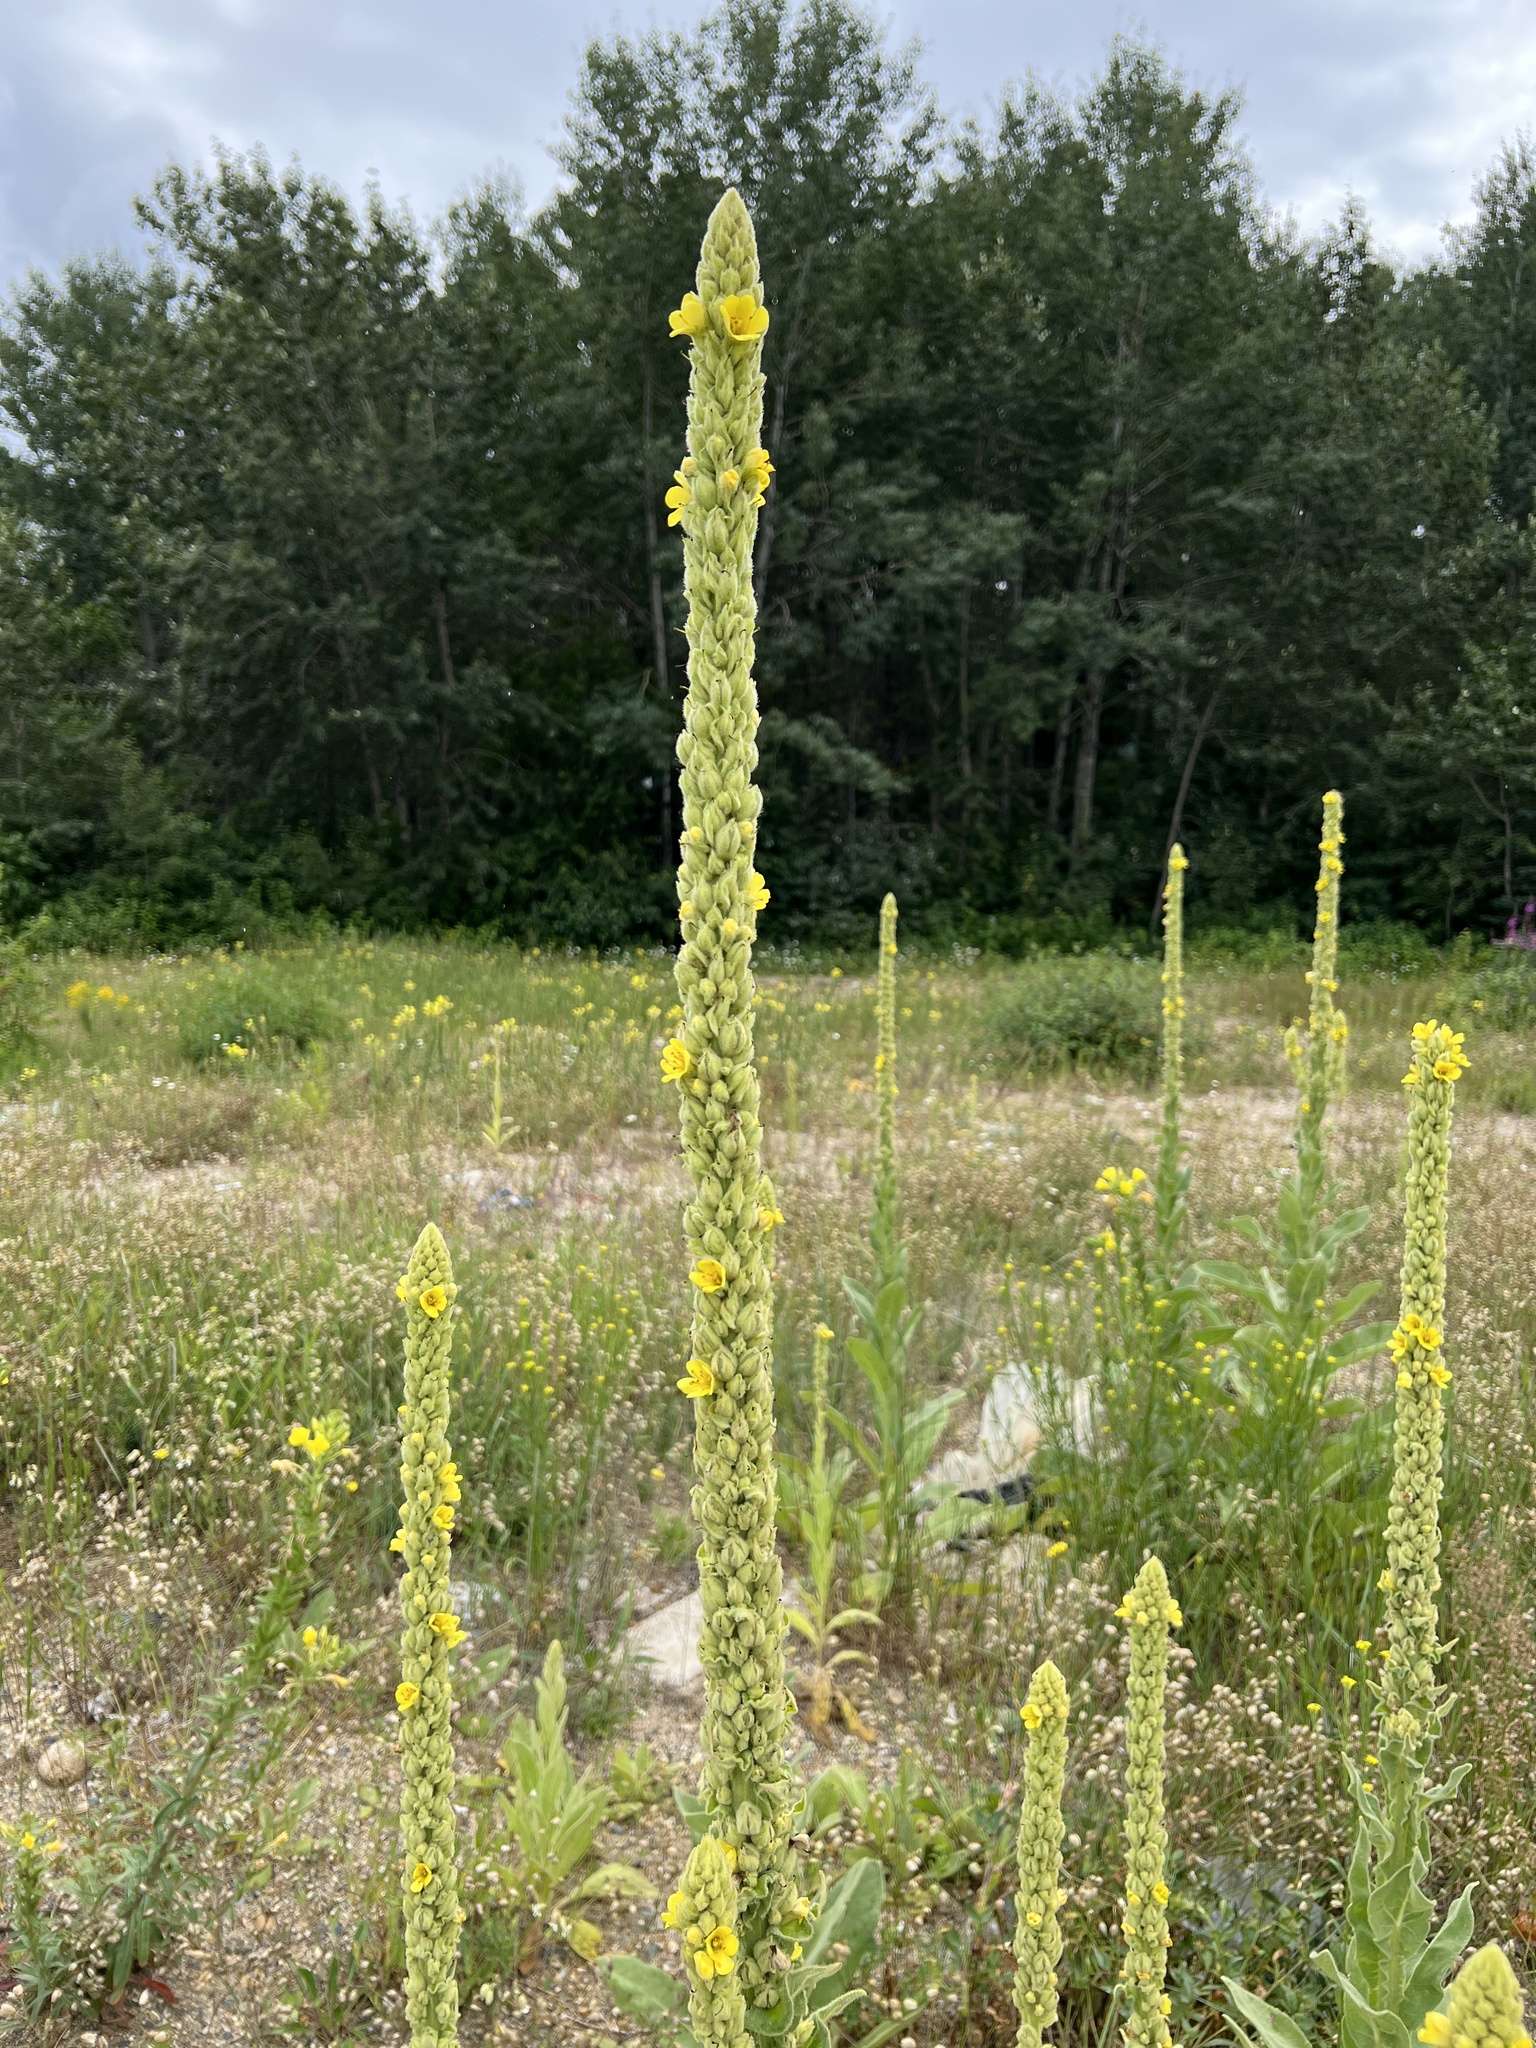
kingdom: Plantae
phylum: Tracheophyta
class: Magnoliopsida
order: Lamiales
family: Scrophulariaceae
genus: Verbascum
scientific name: Verbascum thapsus
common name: Common mullein
